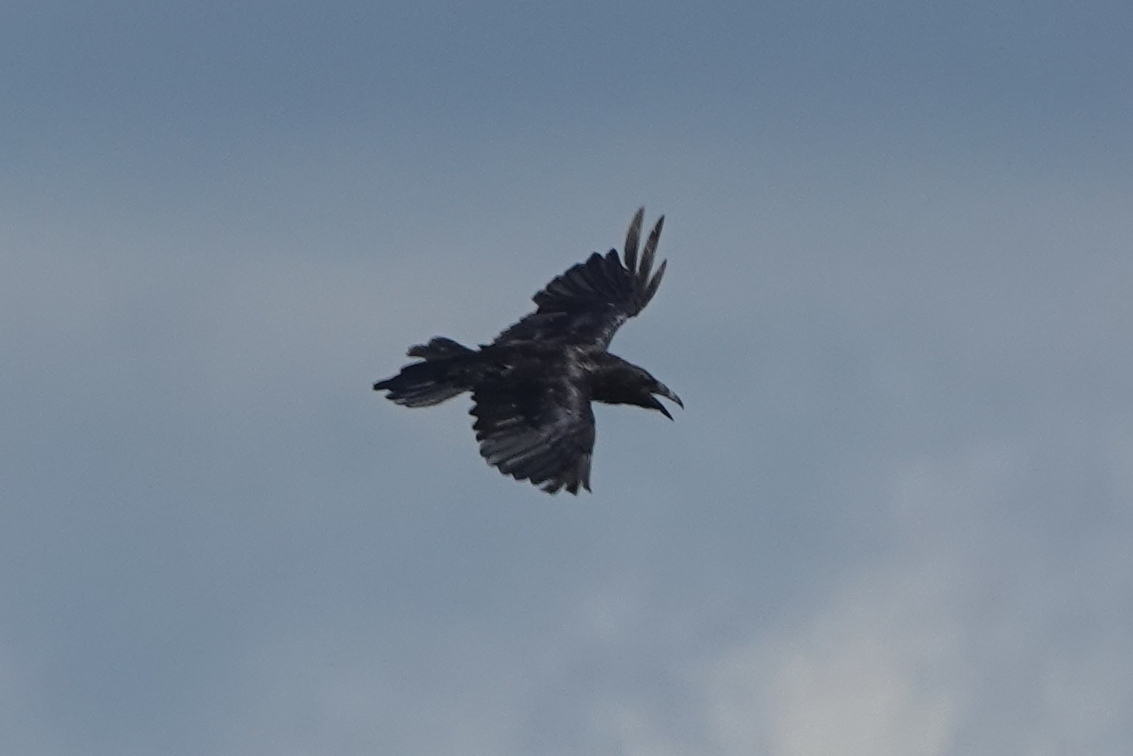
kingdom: Animalia
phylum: Chordata
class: Aves
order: Passeriformes
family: Corvidae
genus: Corvus
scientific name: Corvus corax
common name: Common raven
